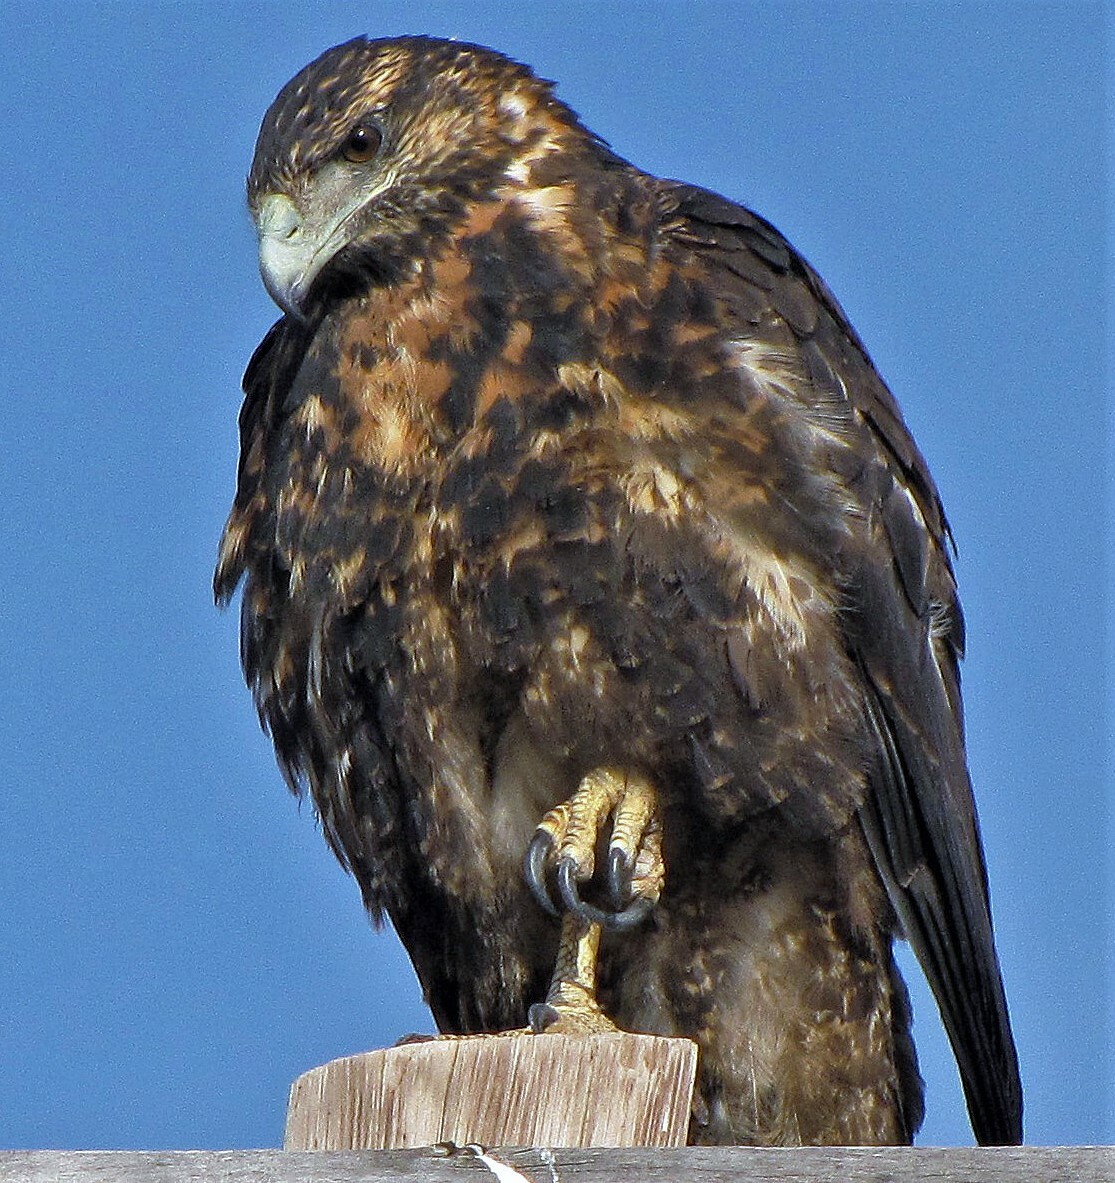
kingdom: Animalia
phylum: Chordata
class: Aves
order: Accipitriformes
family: Accipitridae
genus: Geranoaetus
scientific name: Geranoaetus melanoleucus
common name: Black-chested buzzard-eagle
